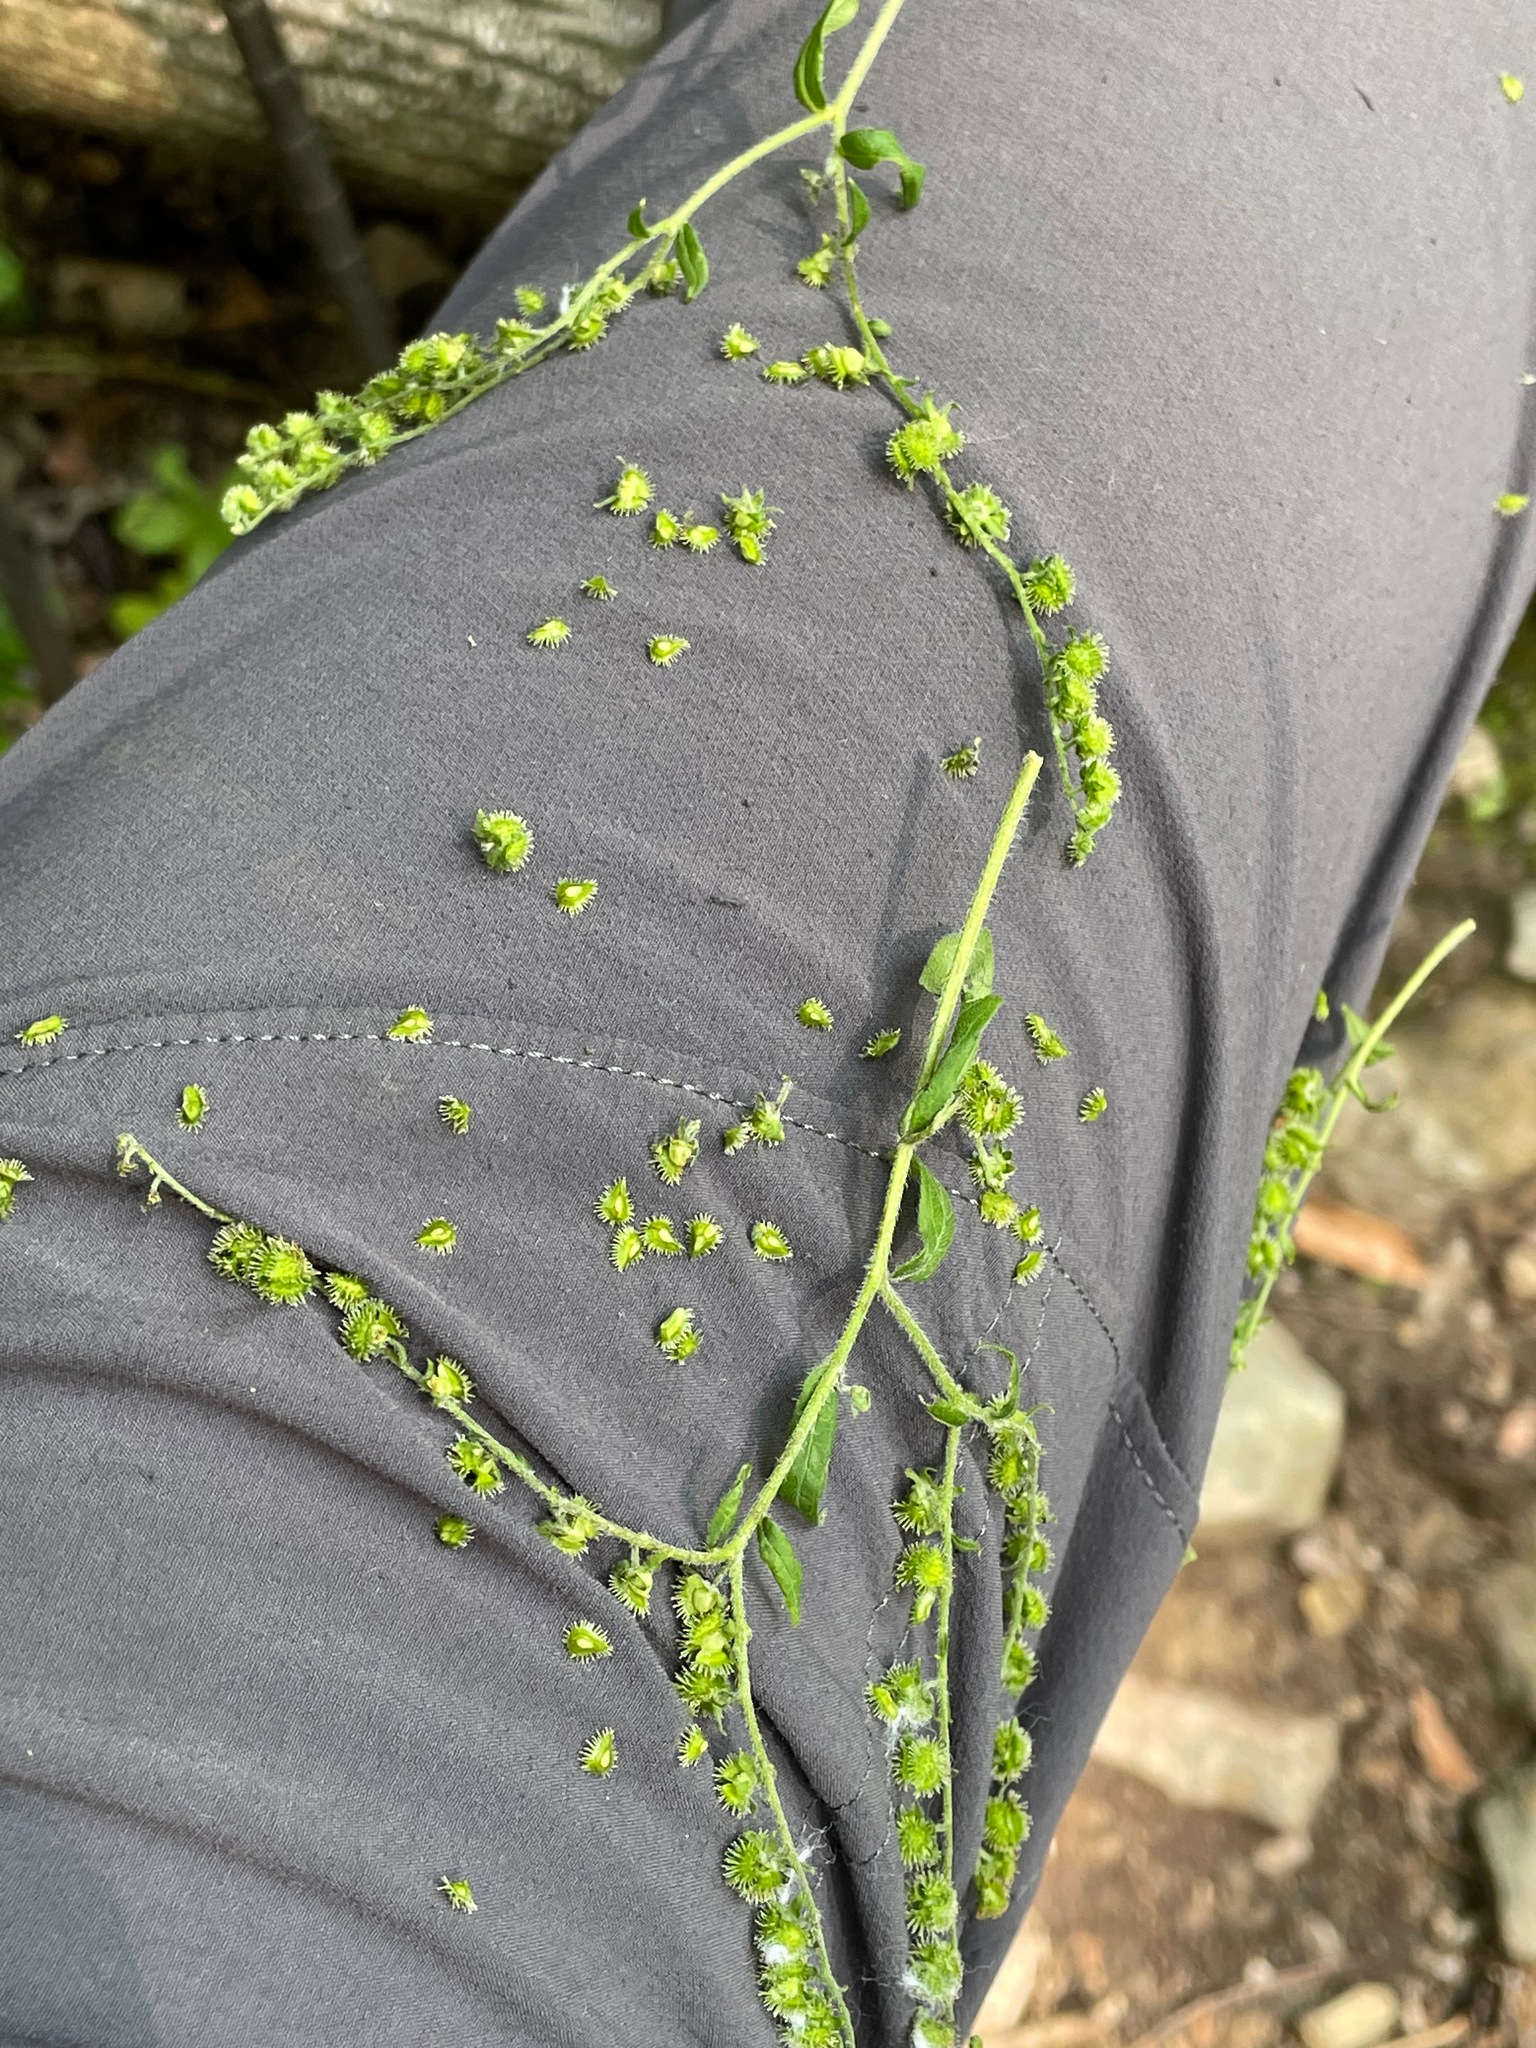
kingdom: Plantae
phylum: Tracheophyta
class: Magnoliopsida
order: Boraginales
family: Boraginaceae
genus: Hackelia
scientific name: Hackelia virginiana
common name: Beggar's-lice
